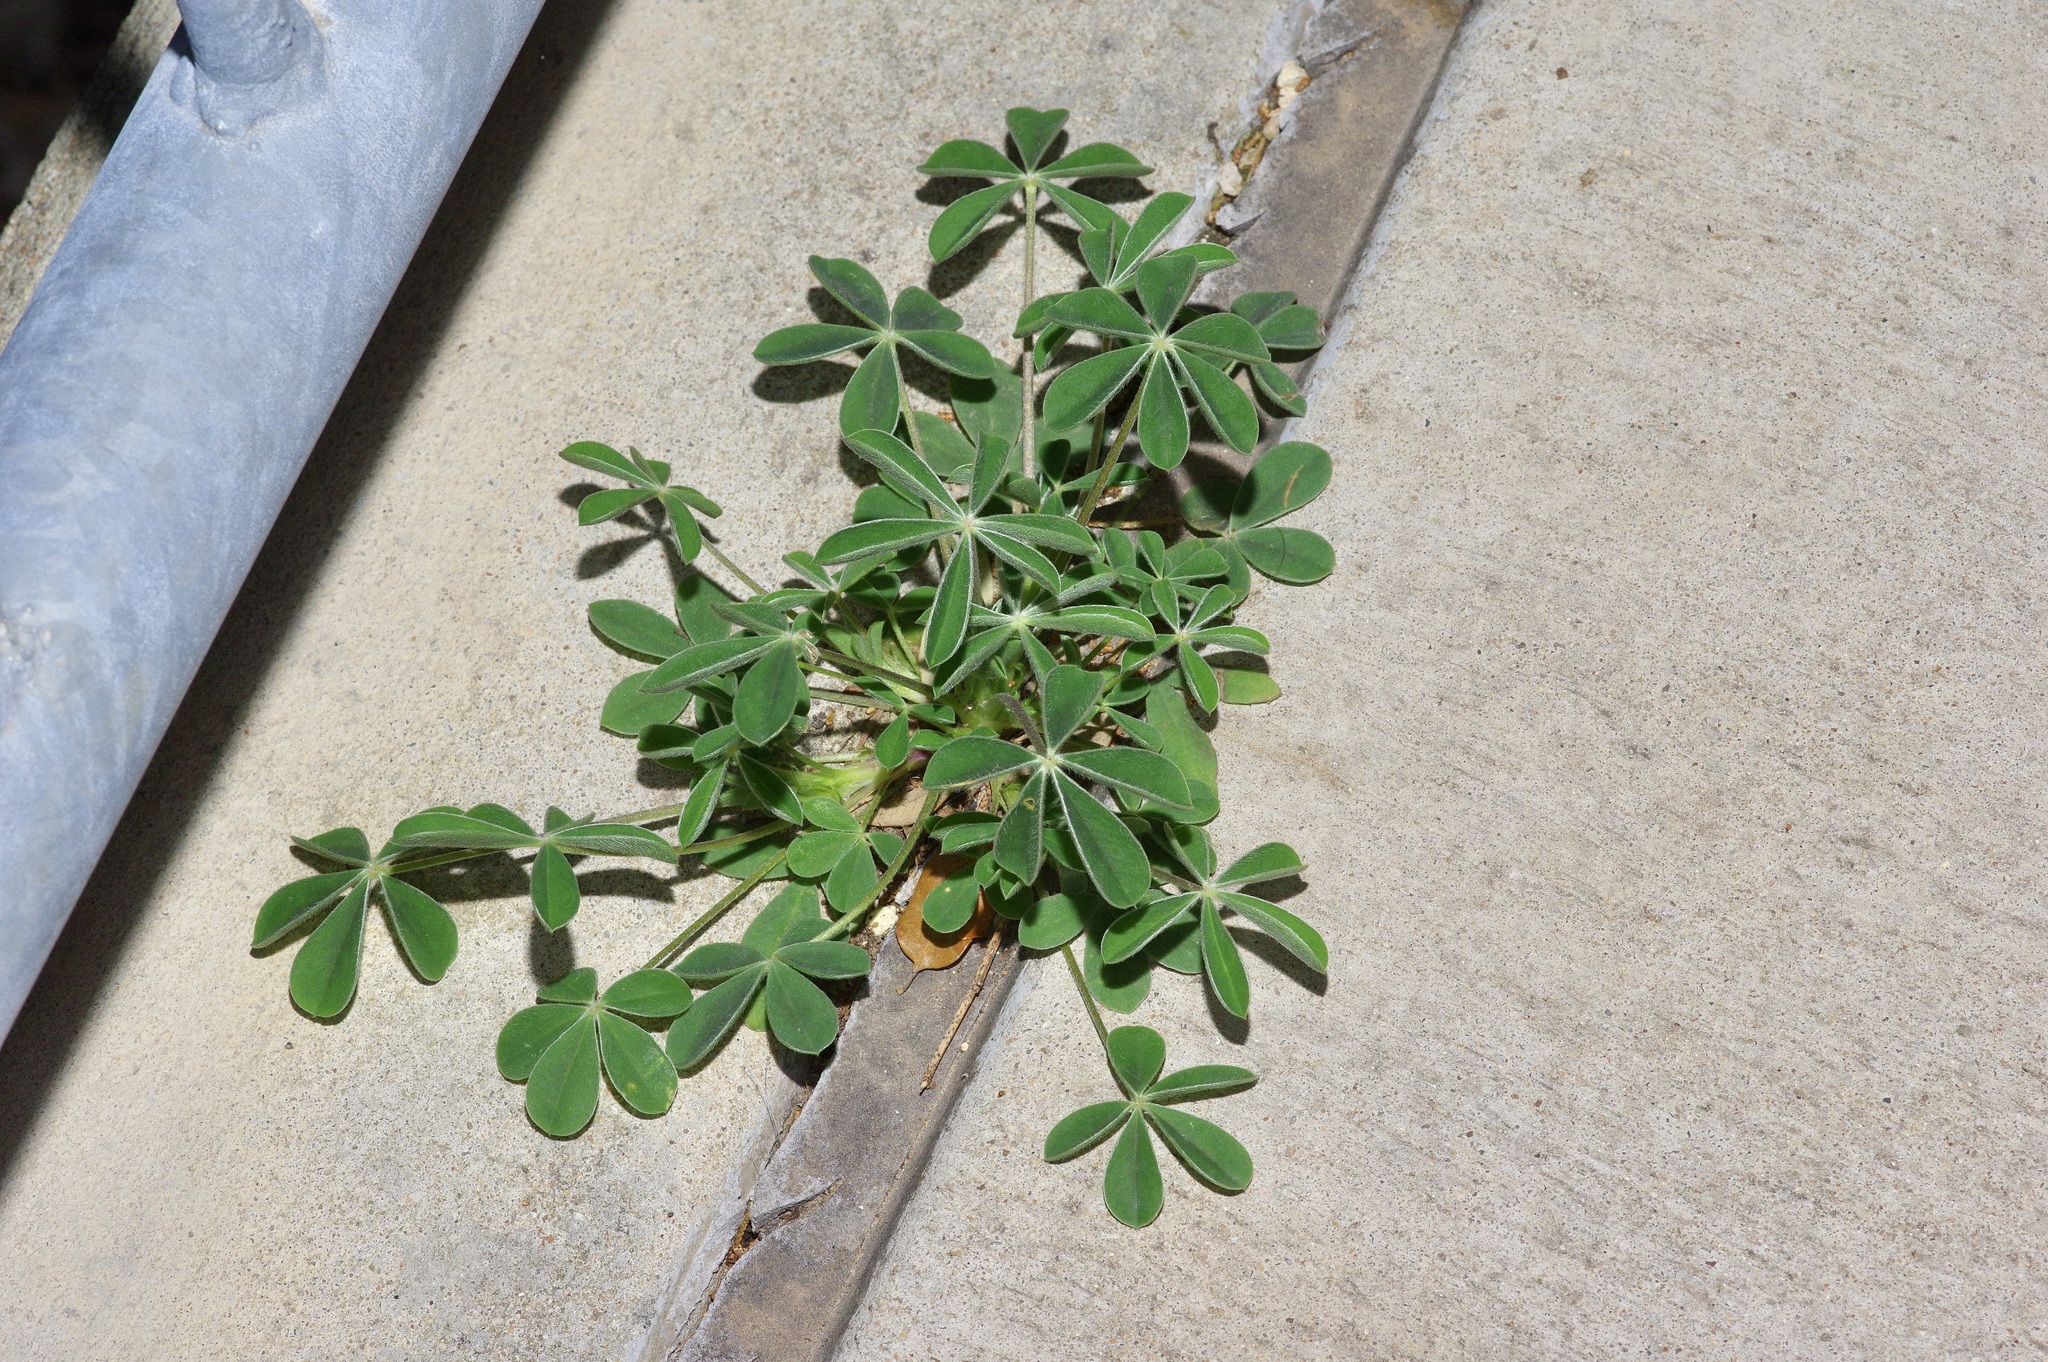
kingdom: Plantae
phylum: Tracheophyta
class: Magnoliopsida
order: Fabales
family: Fabaceae
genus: Lupinus
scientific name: Lupinus texensis
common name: Texas bluebonnet
